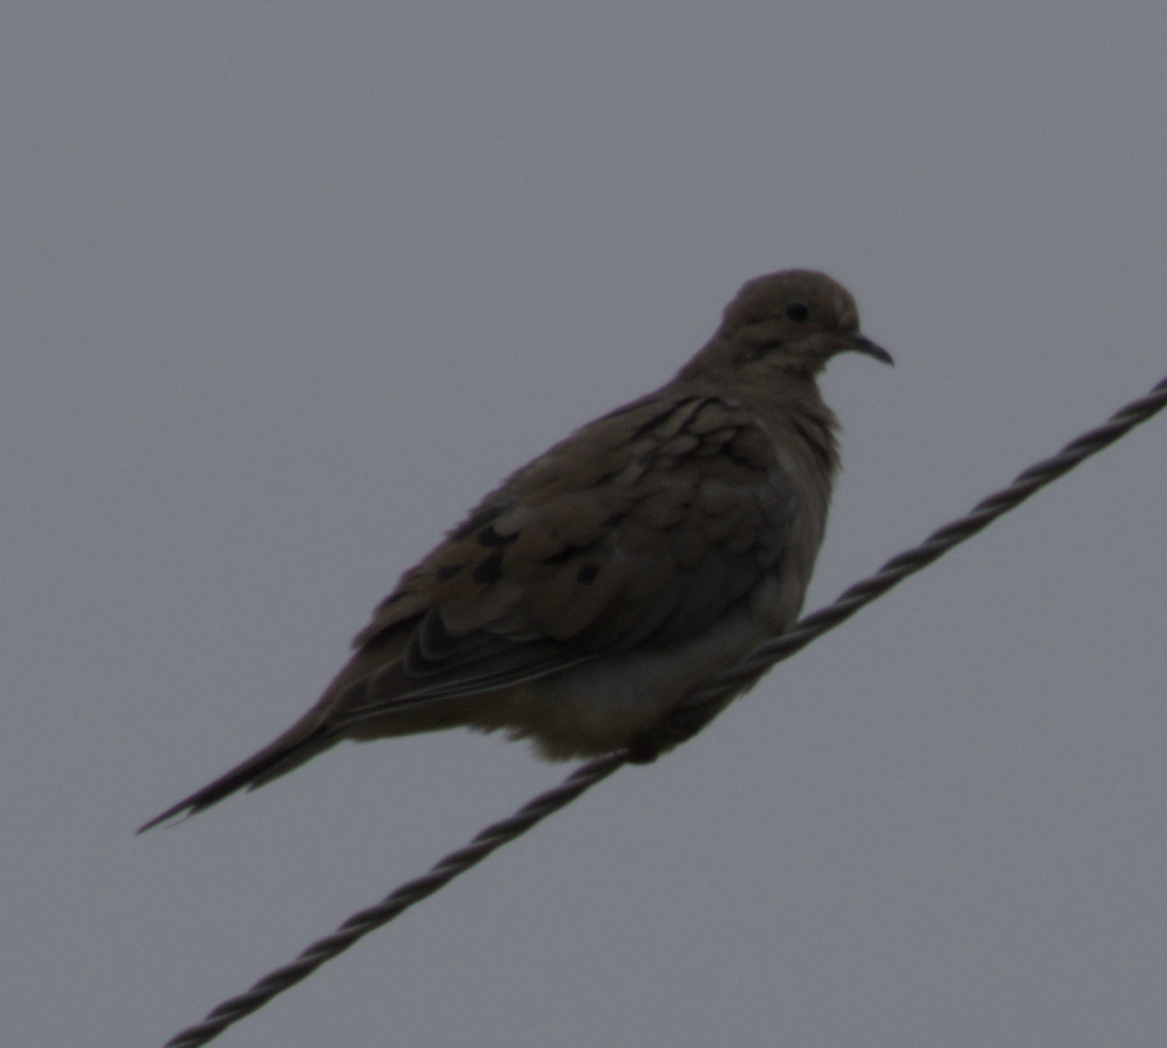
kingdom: Animalia
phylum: Chordata
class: Aves
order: Columbiformes
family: Columbidae
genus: Zenaida
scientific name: Zenaida macroura
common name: Mourning dove
